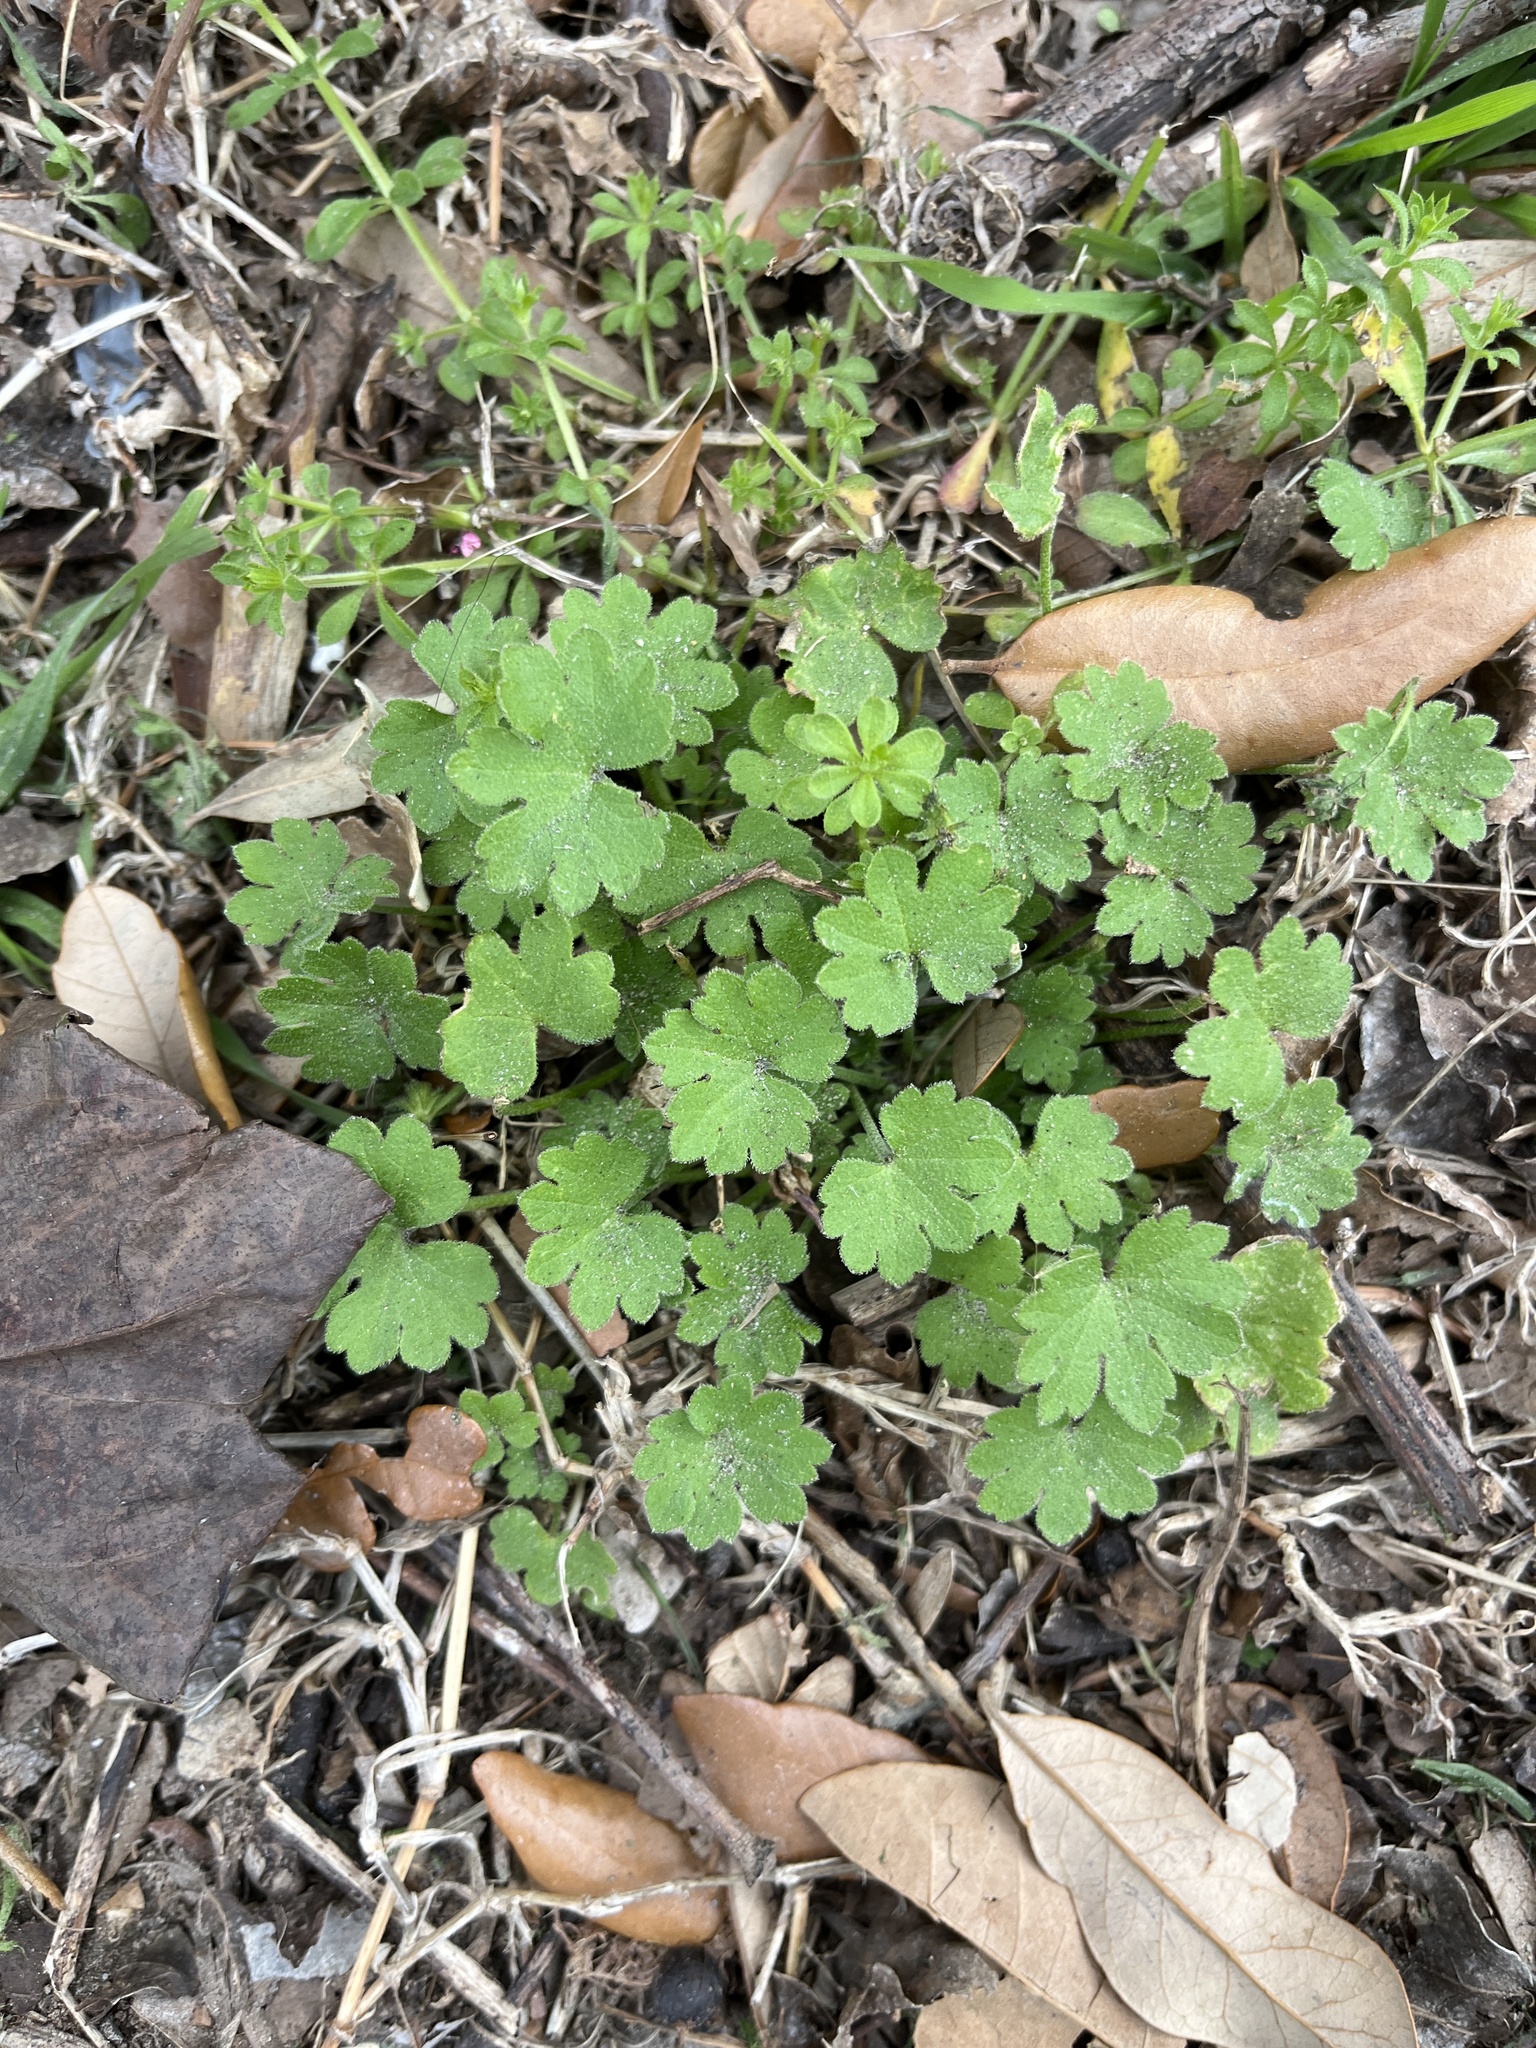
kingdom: Plantae
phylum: Tracheophyta
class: Magnoliopsida
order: Apiales
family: Apiaceae
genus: Bowlesia
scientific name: Bowlesia incana
